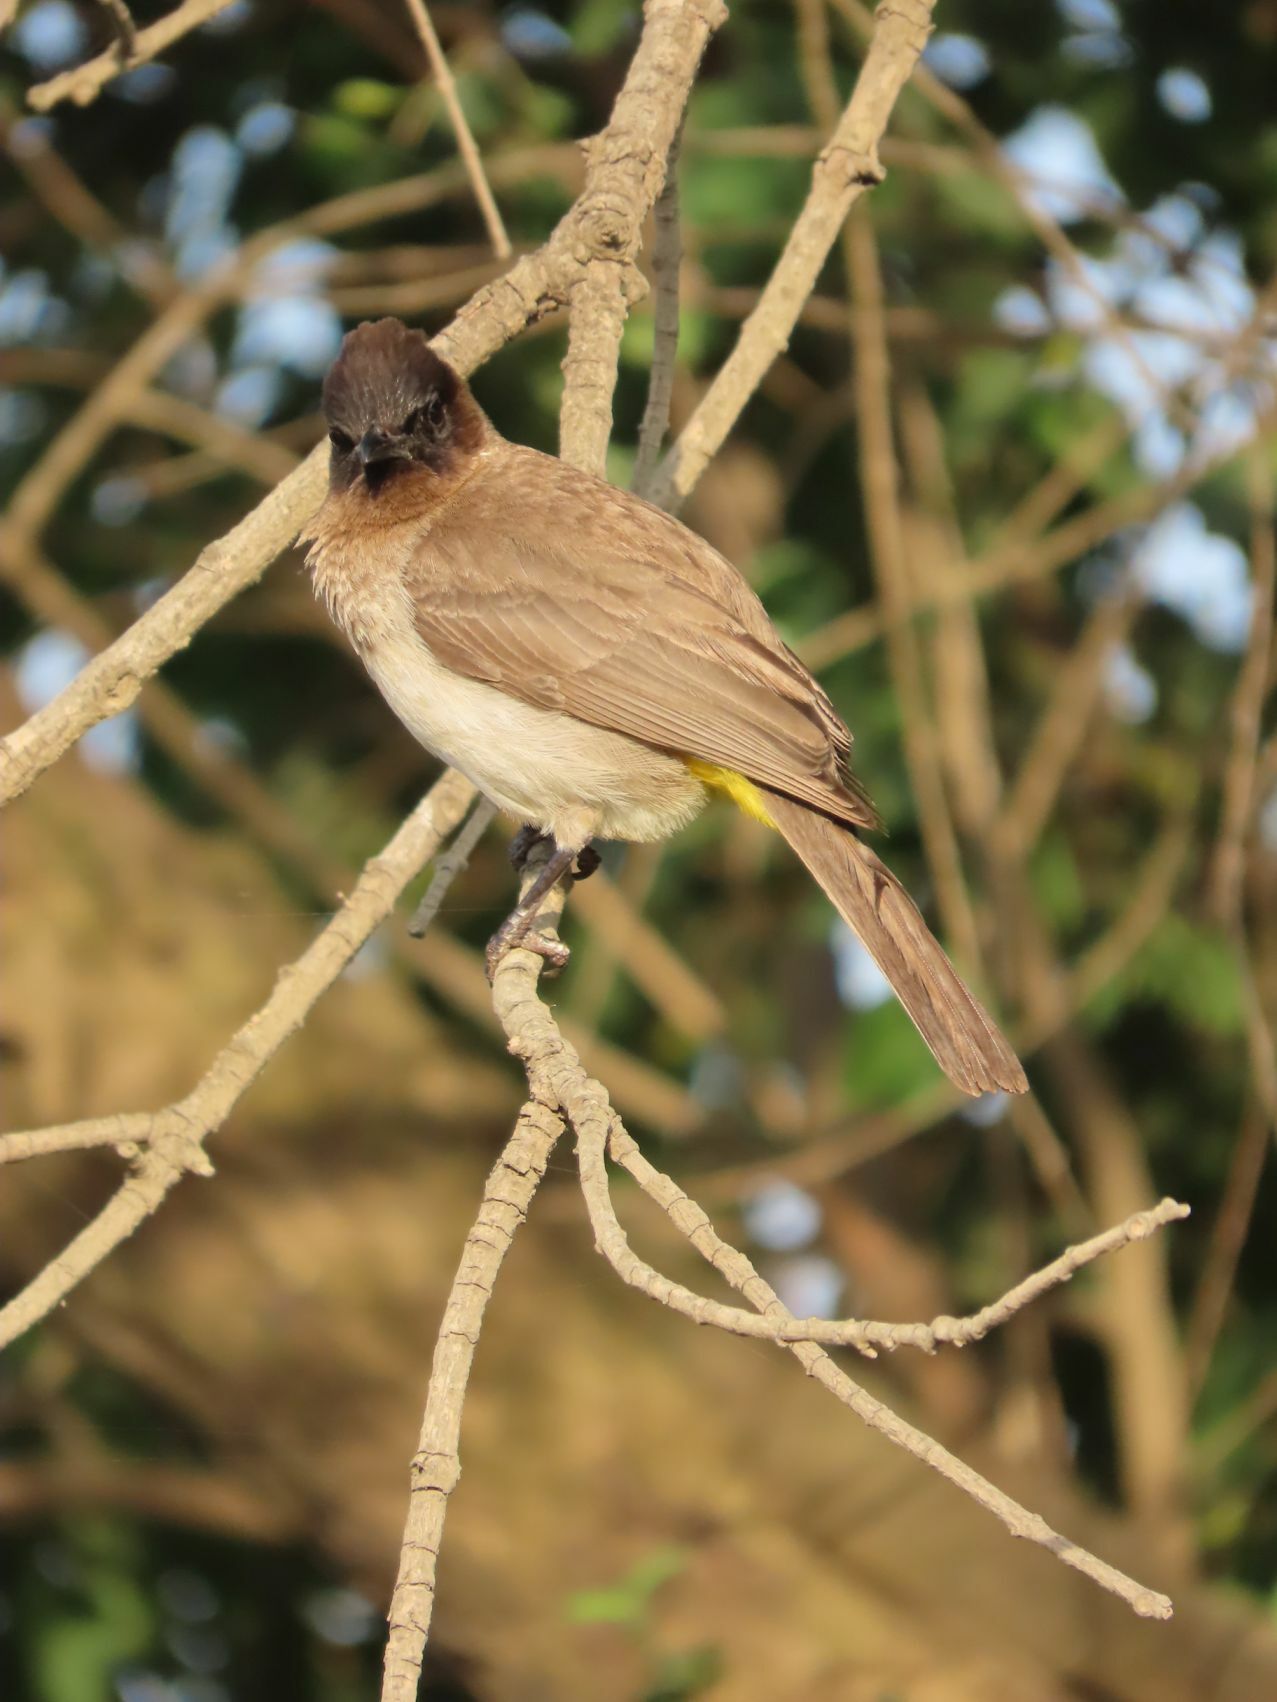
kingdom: Animalia
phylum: Chordata
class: Aves
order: Passeriformes
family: Pycnonotidae
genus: Pycnonotus
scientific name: Pycnonotus barbatus
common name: Common bulbul
